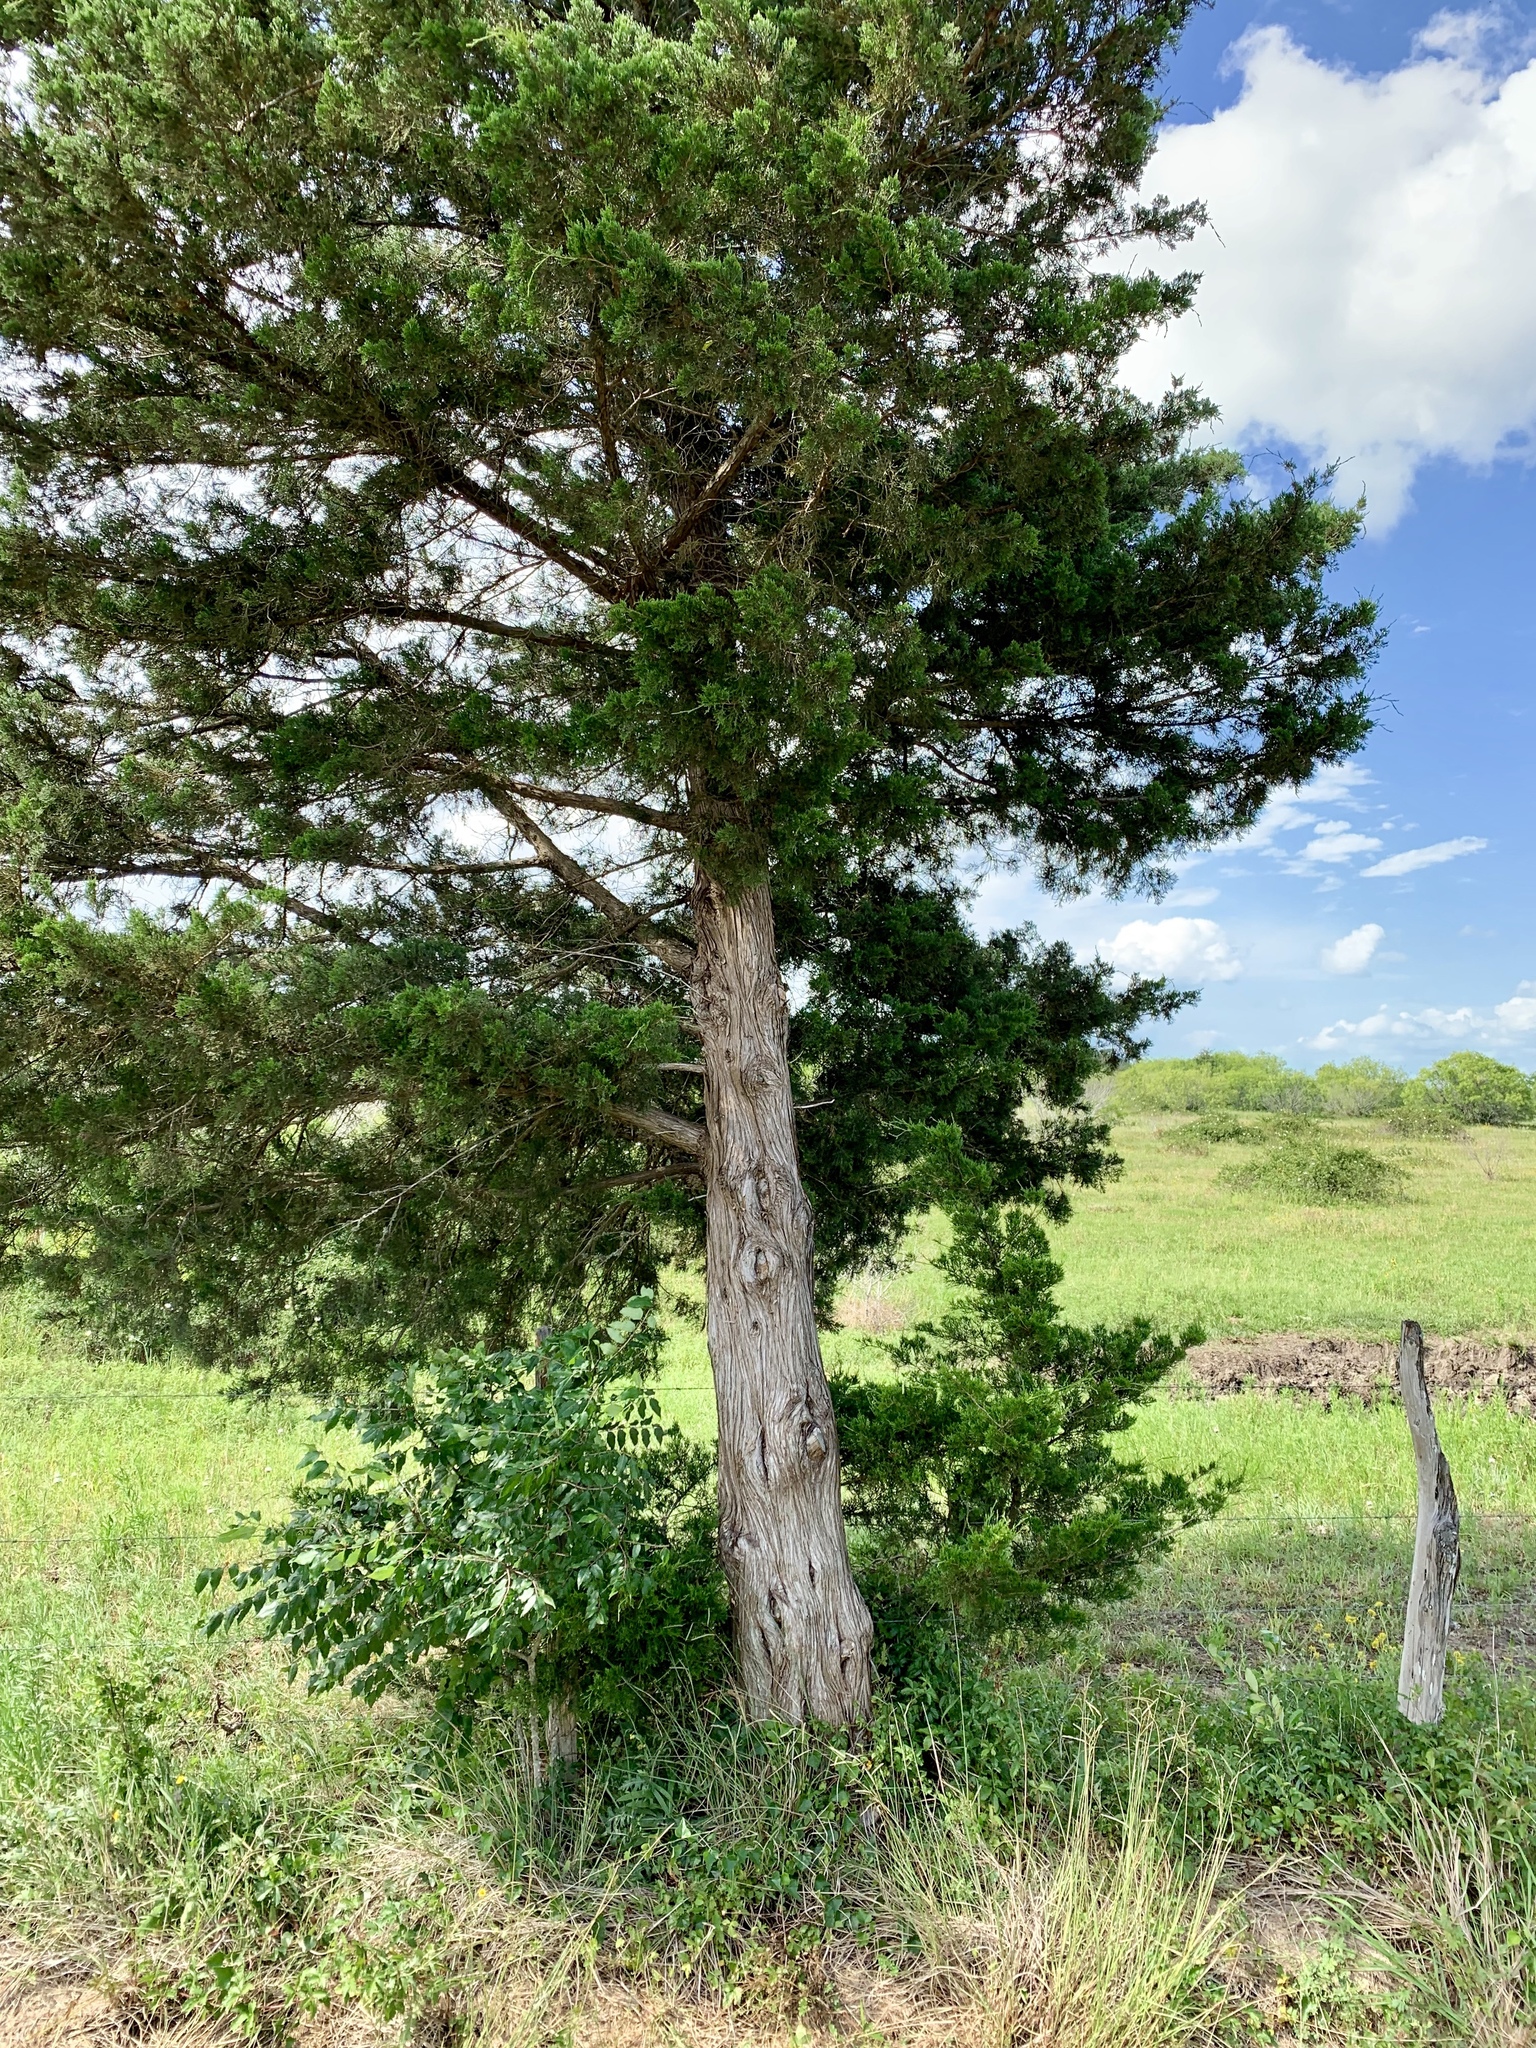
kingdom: Plantae
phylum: Tracheophyta
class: Pinopsida
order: Pinales
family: Cupressaceae
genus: Juniperus
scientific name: Juniperus virginiana
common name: Red juniper
